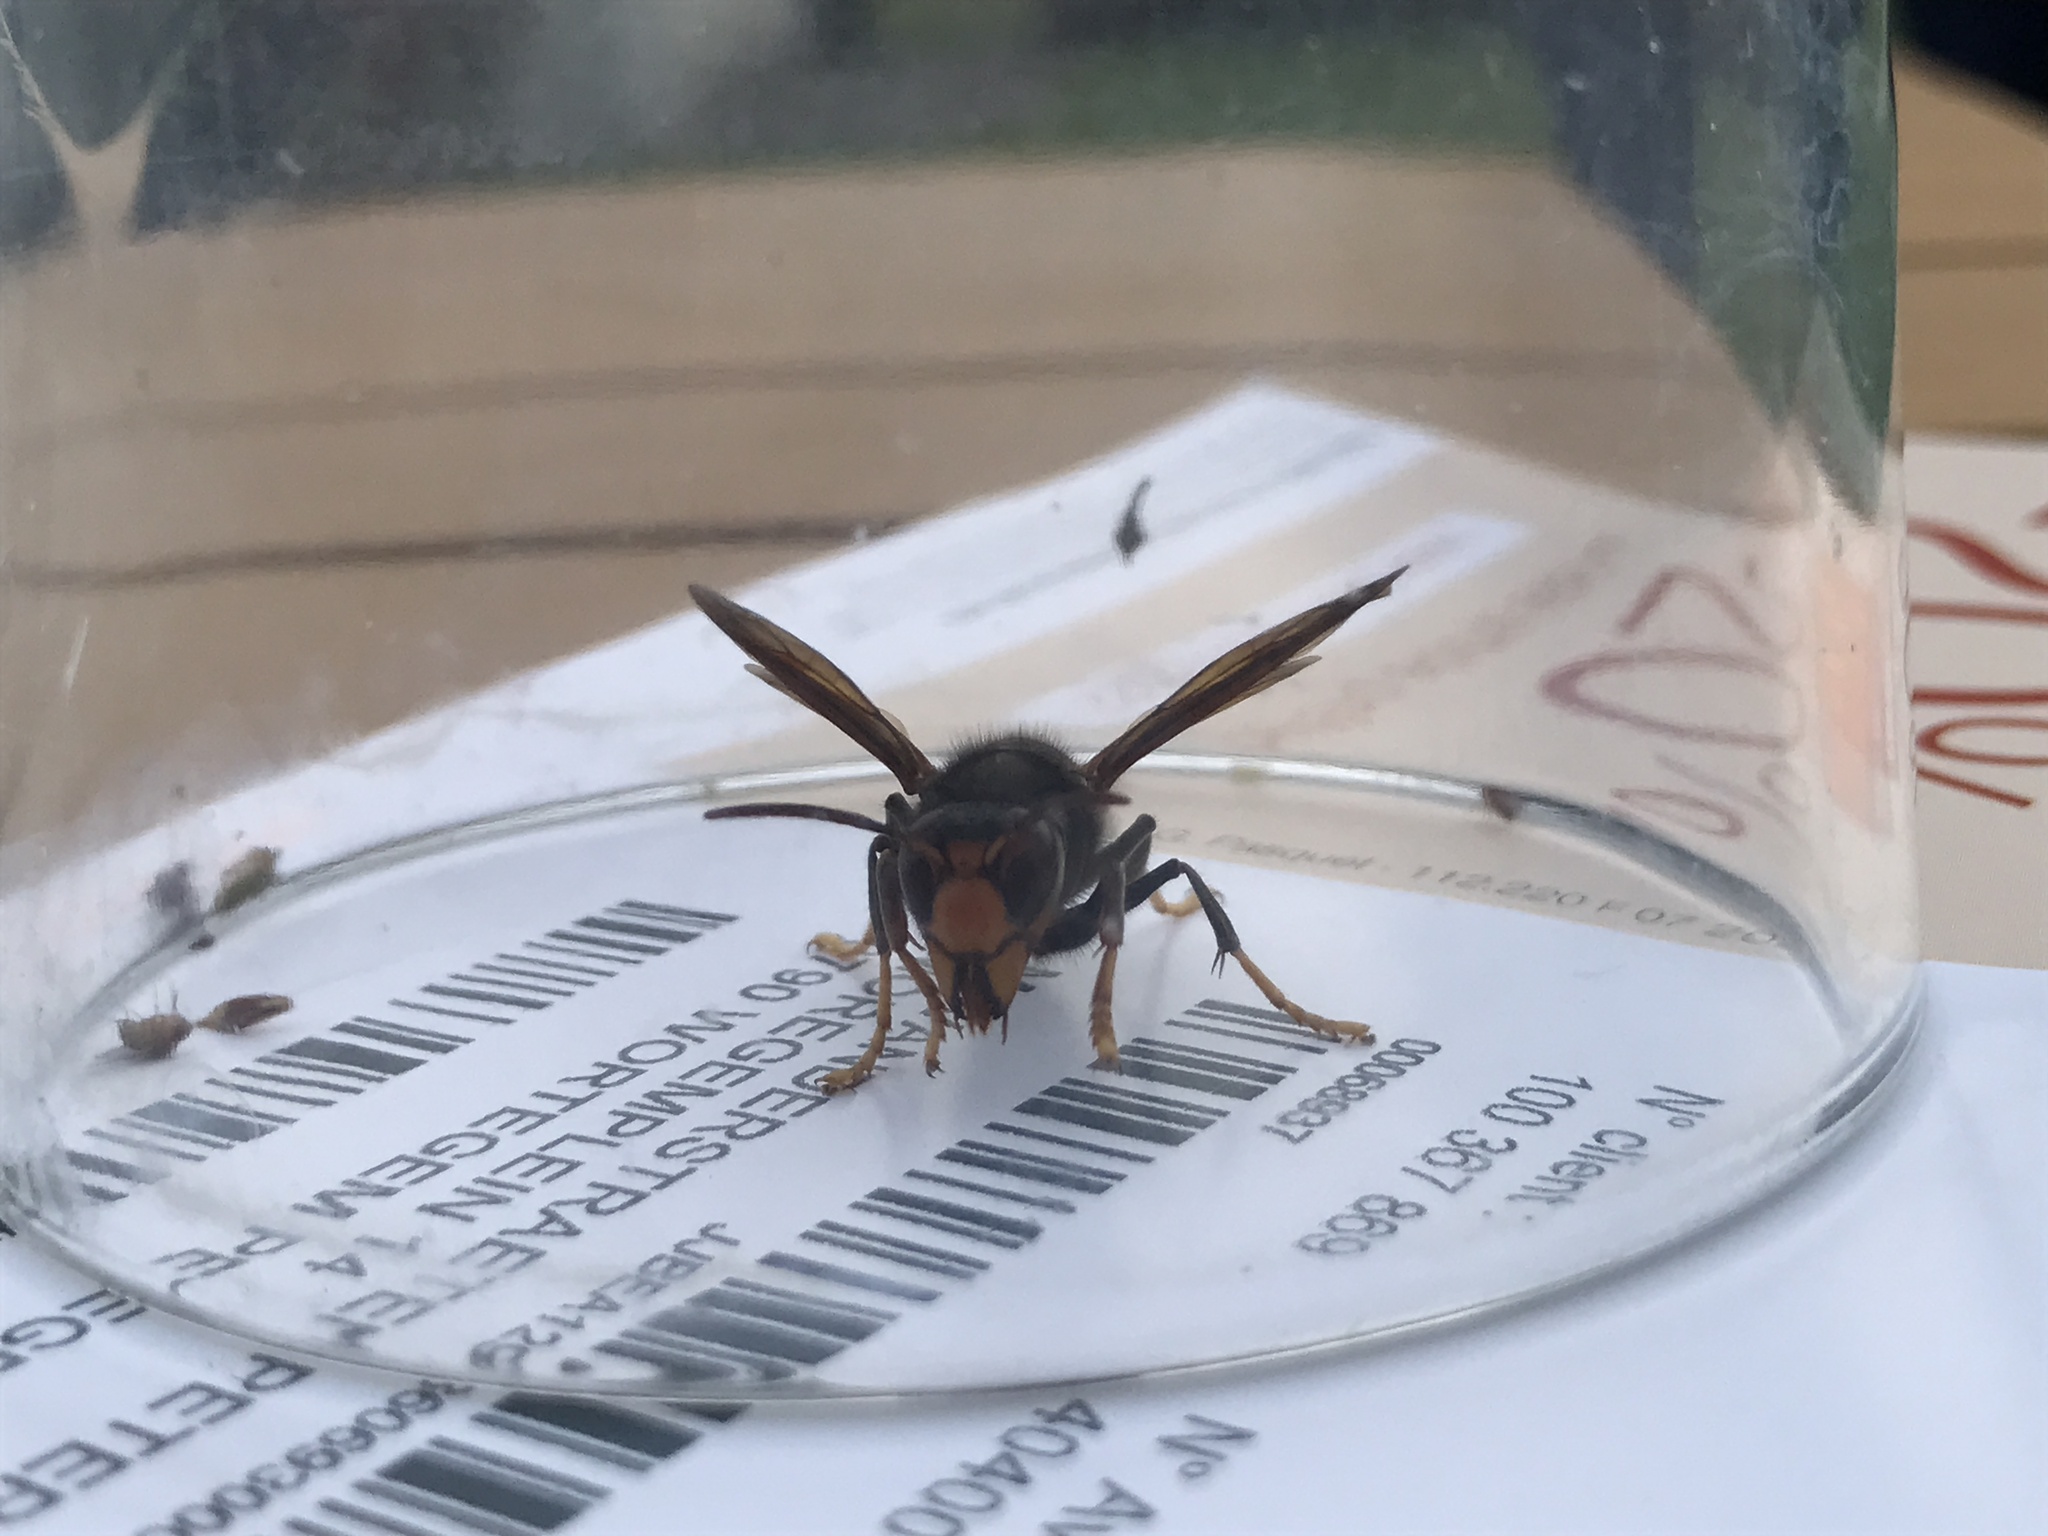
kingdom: Animalia
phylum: Arthropoda
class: Insecta
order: Hymenoptera
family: Vespidae
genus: Vespa
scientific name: Vespa velutina
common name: Asian hornet
